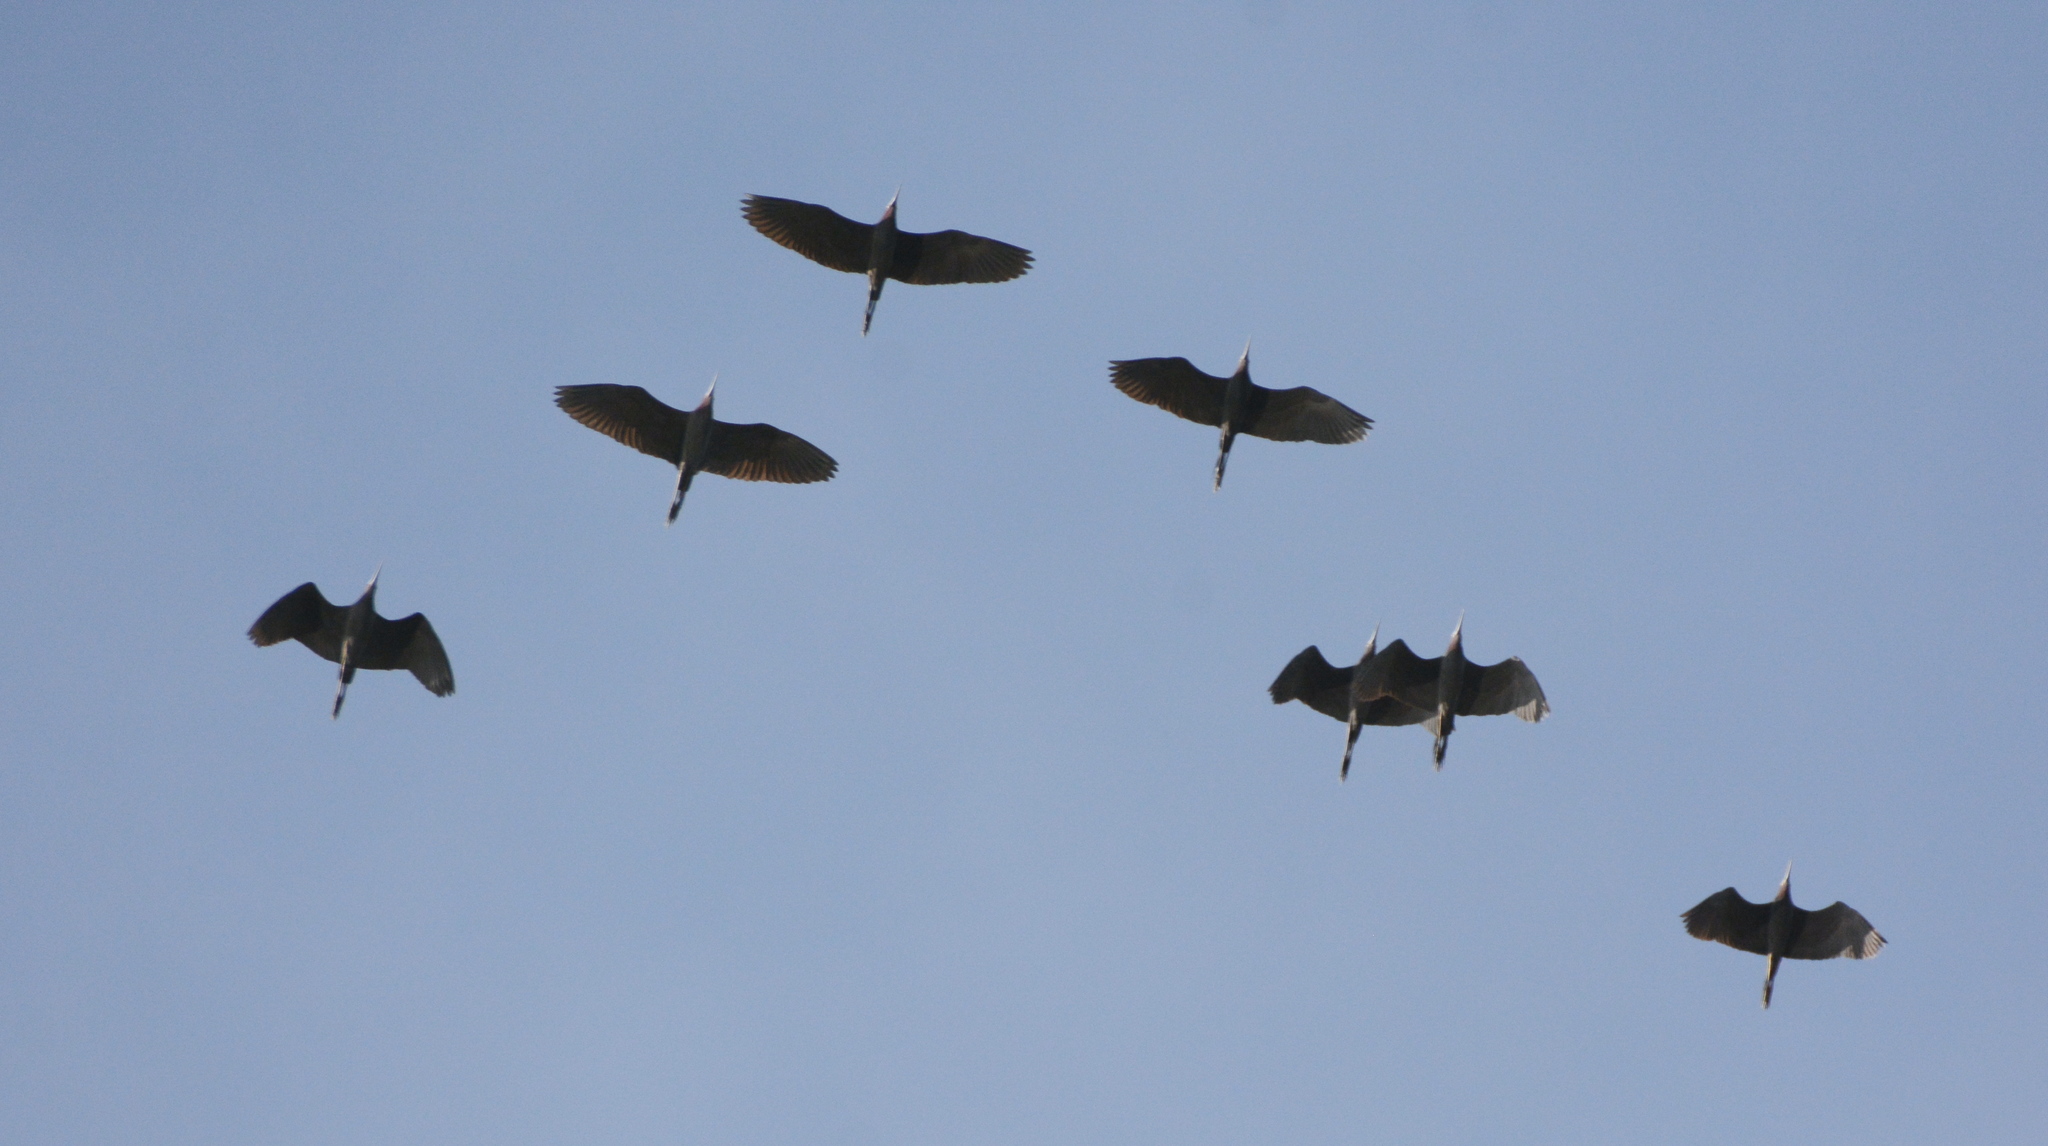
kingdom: Animalia
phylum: Chordata
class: Aves
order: Pelecaniformes
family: Ardeidae
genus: Egretta
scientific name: Egretta caerulea
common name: Little blue heron
